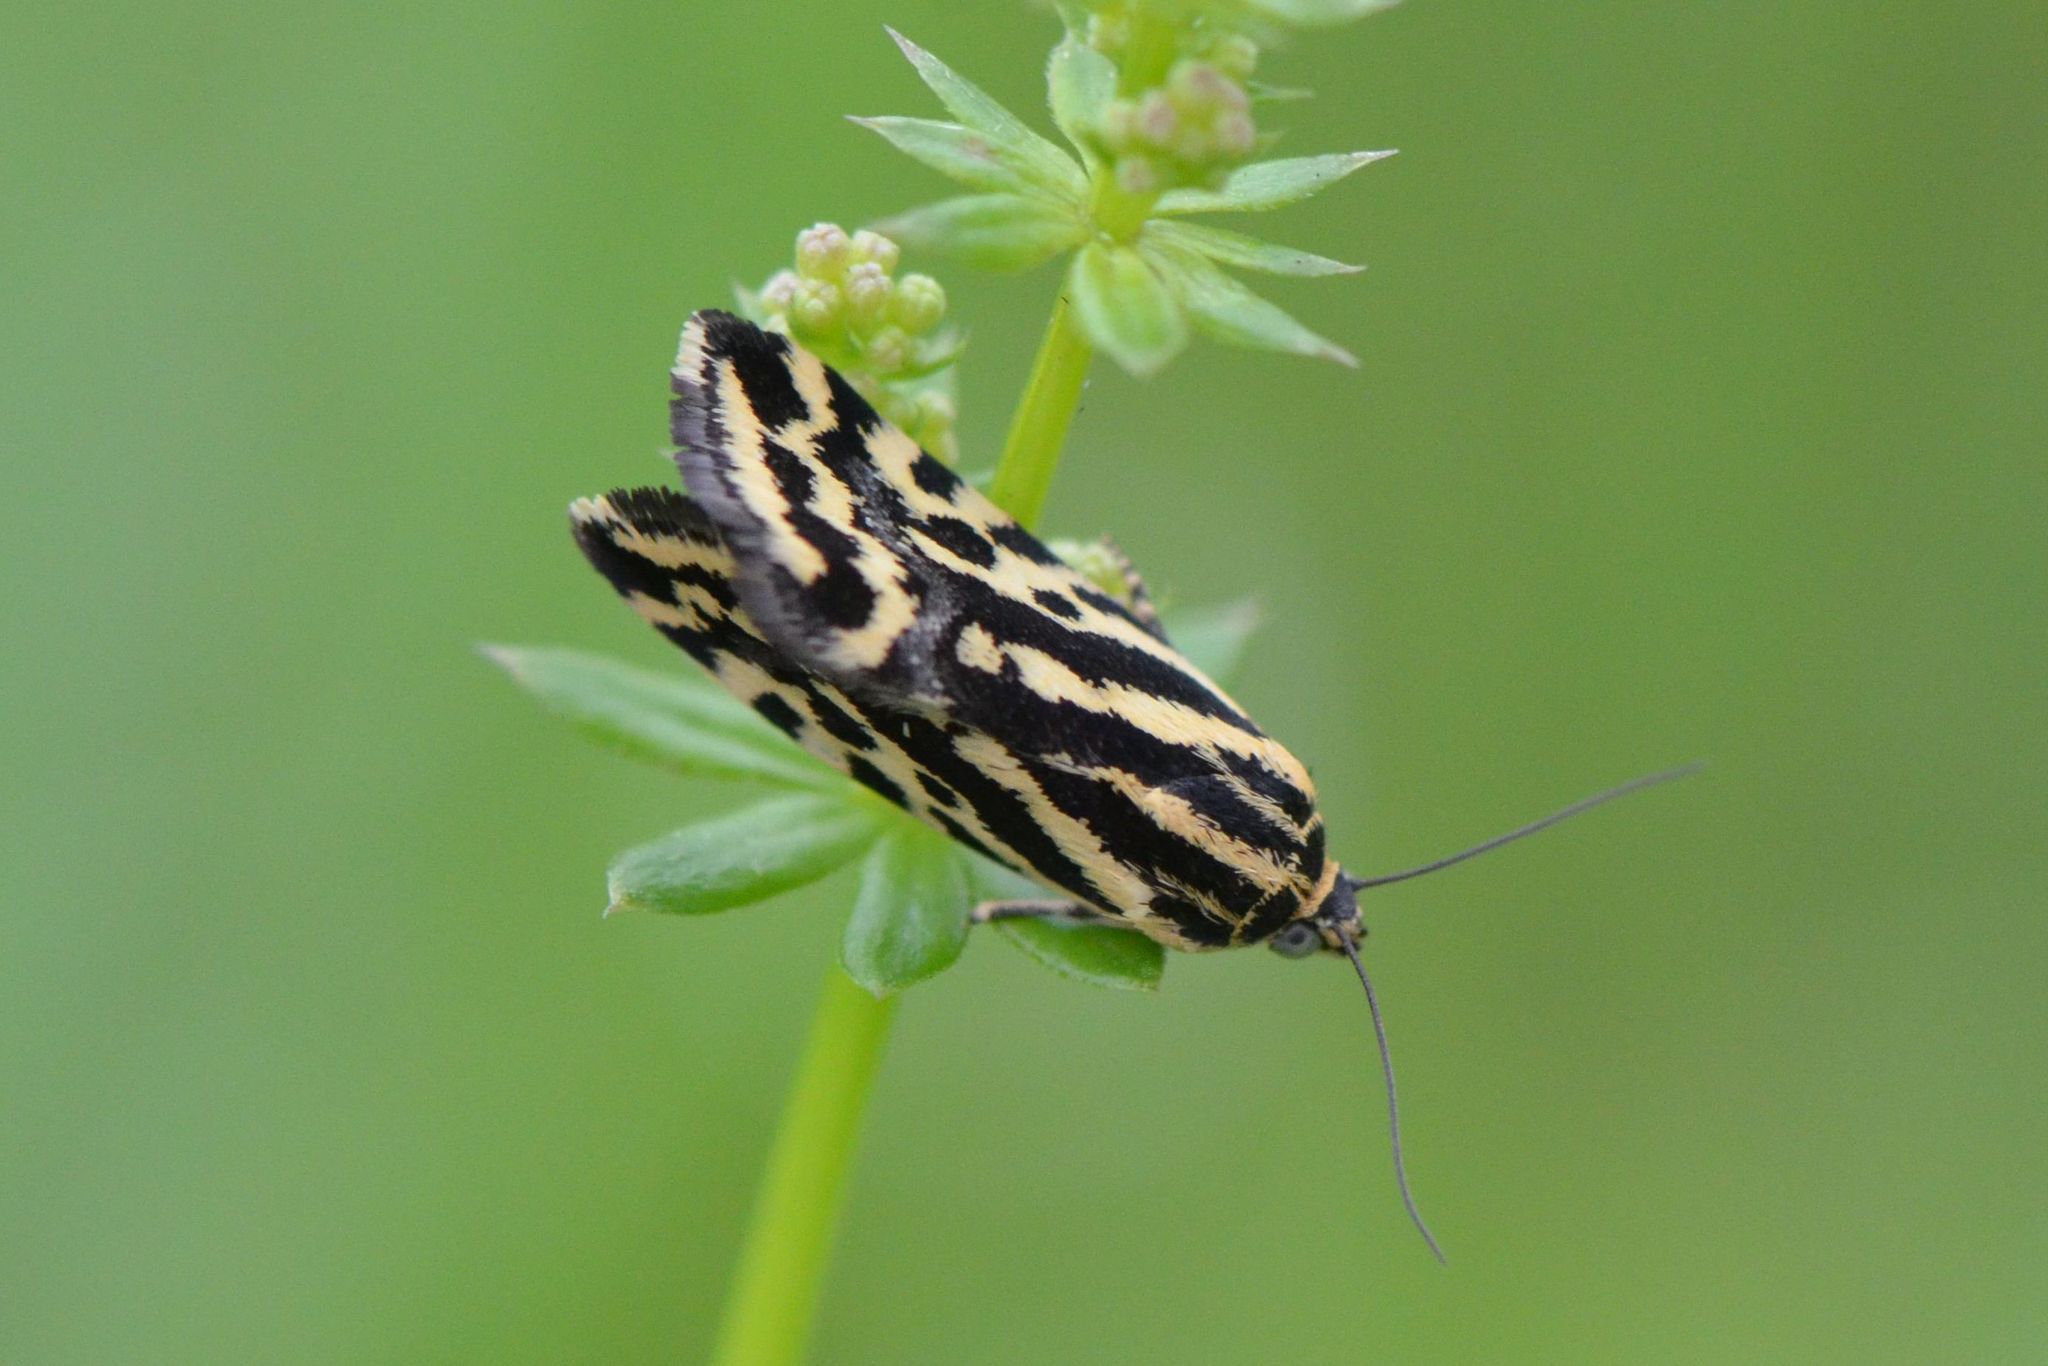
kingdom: Animalia
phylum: Arthropoda
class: Insecta
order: Lepidoptera
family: Noctuidae
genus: Acontia
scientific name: Acontia trabealis
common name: Spotted sulphur
